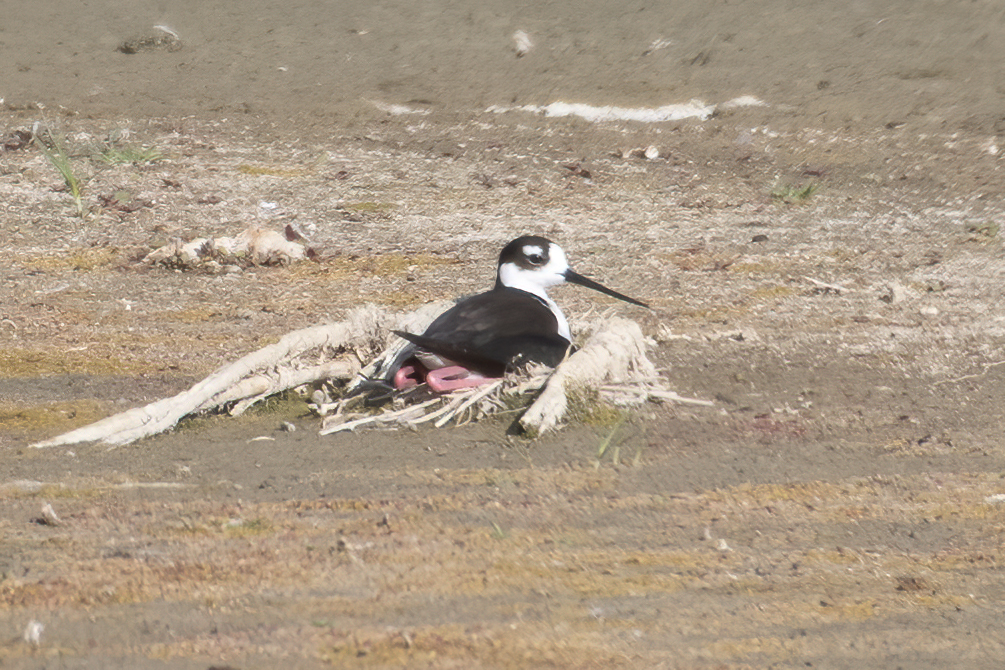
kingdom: Animalia
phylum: Chordata
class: Aves
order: Charadriiformes
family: Recurvirostridae
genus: Himantopus
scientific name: Himantopus mexicanus
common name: Black-necked stilt
